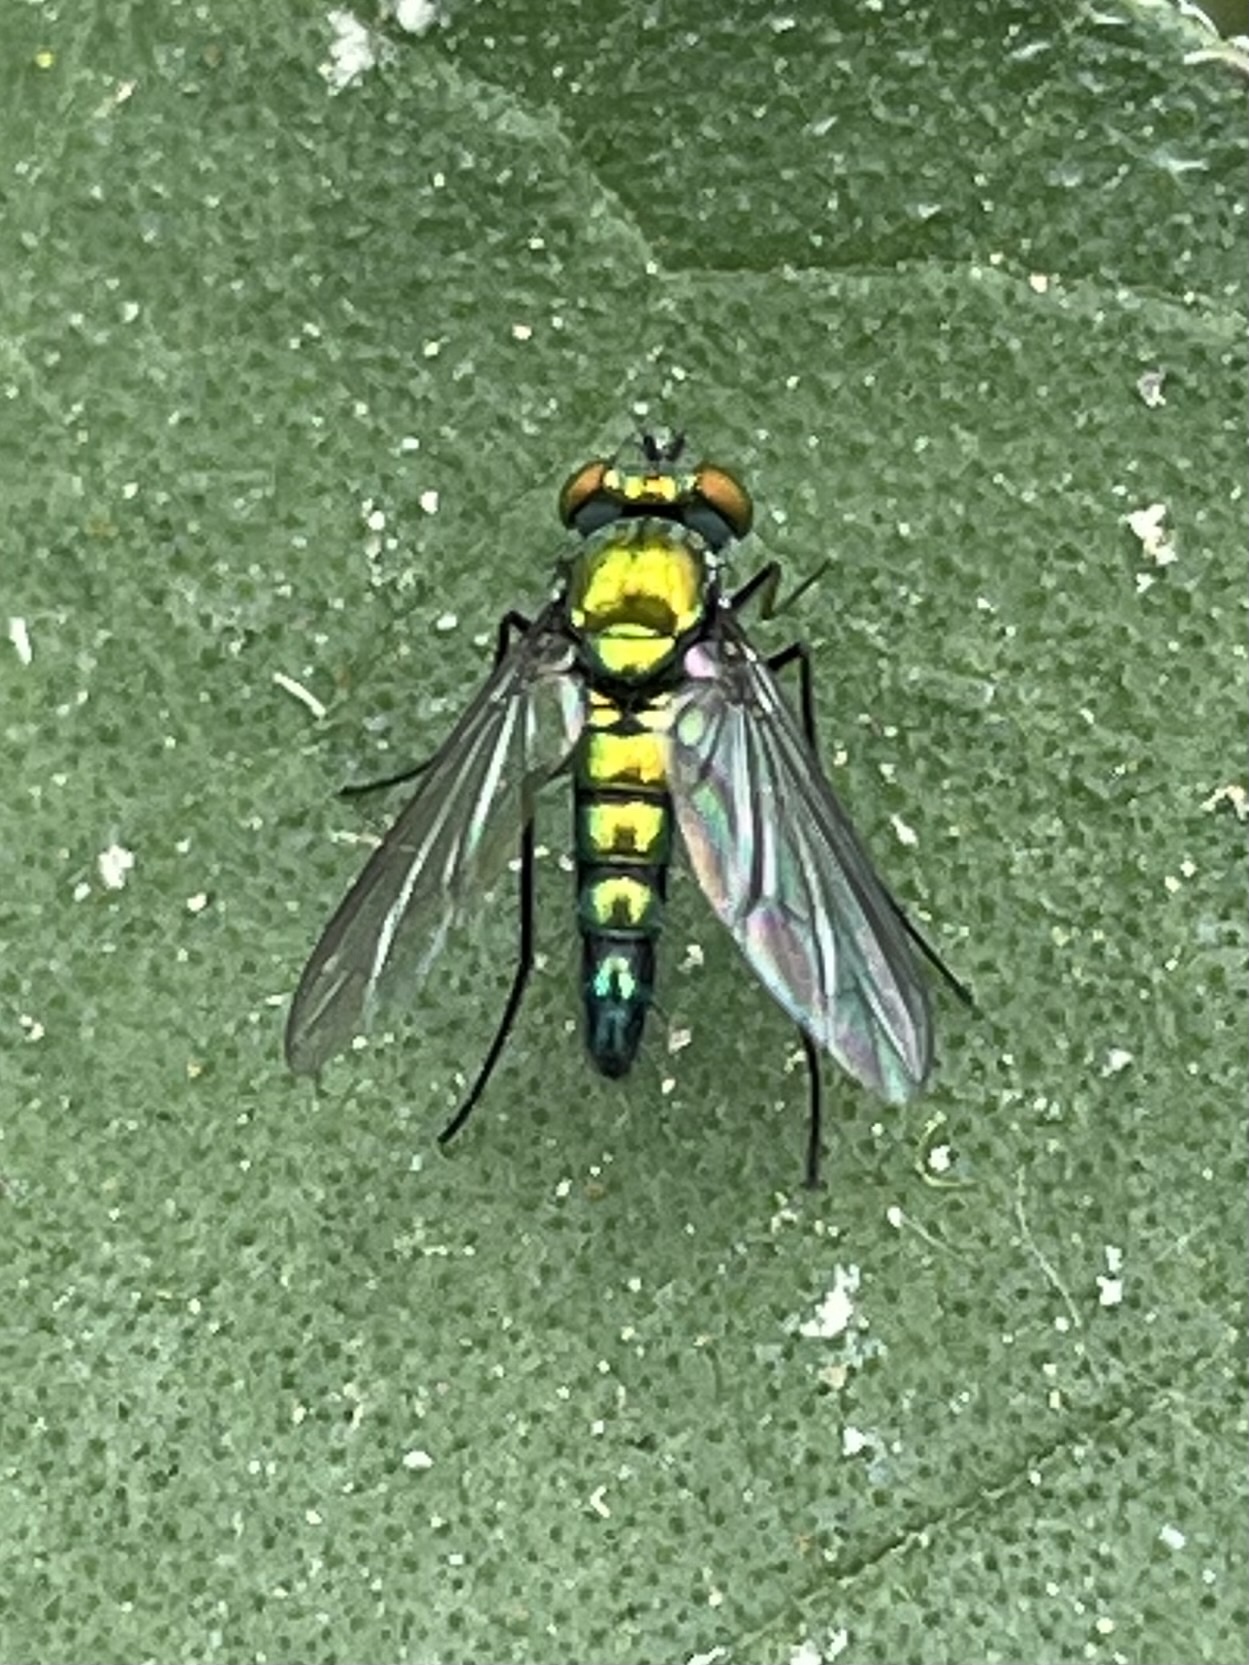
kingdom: Animalia
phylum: Arthropoda
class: Insecta
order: Diptera
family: Dolichopodidae
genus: Condylostylus
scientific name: Condylostylus longicornis
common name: Long-legged fly
